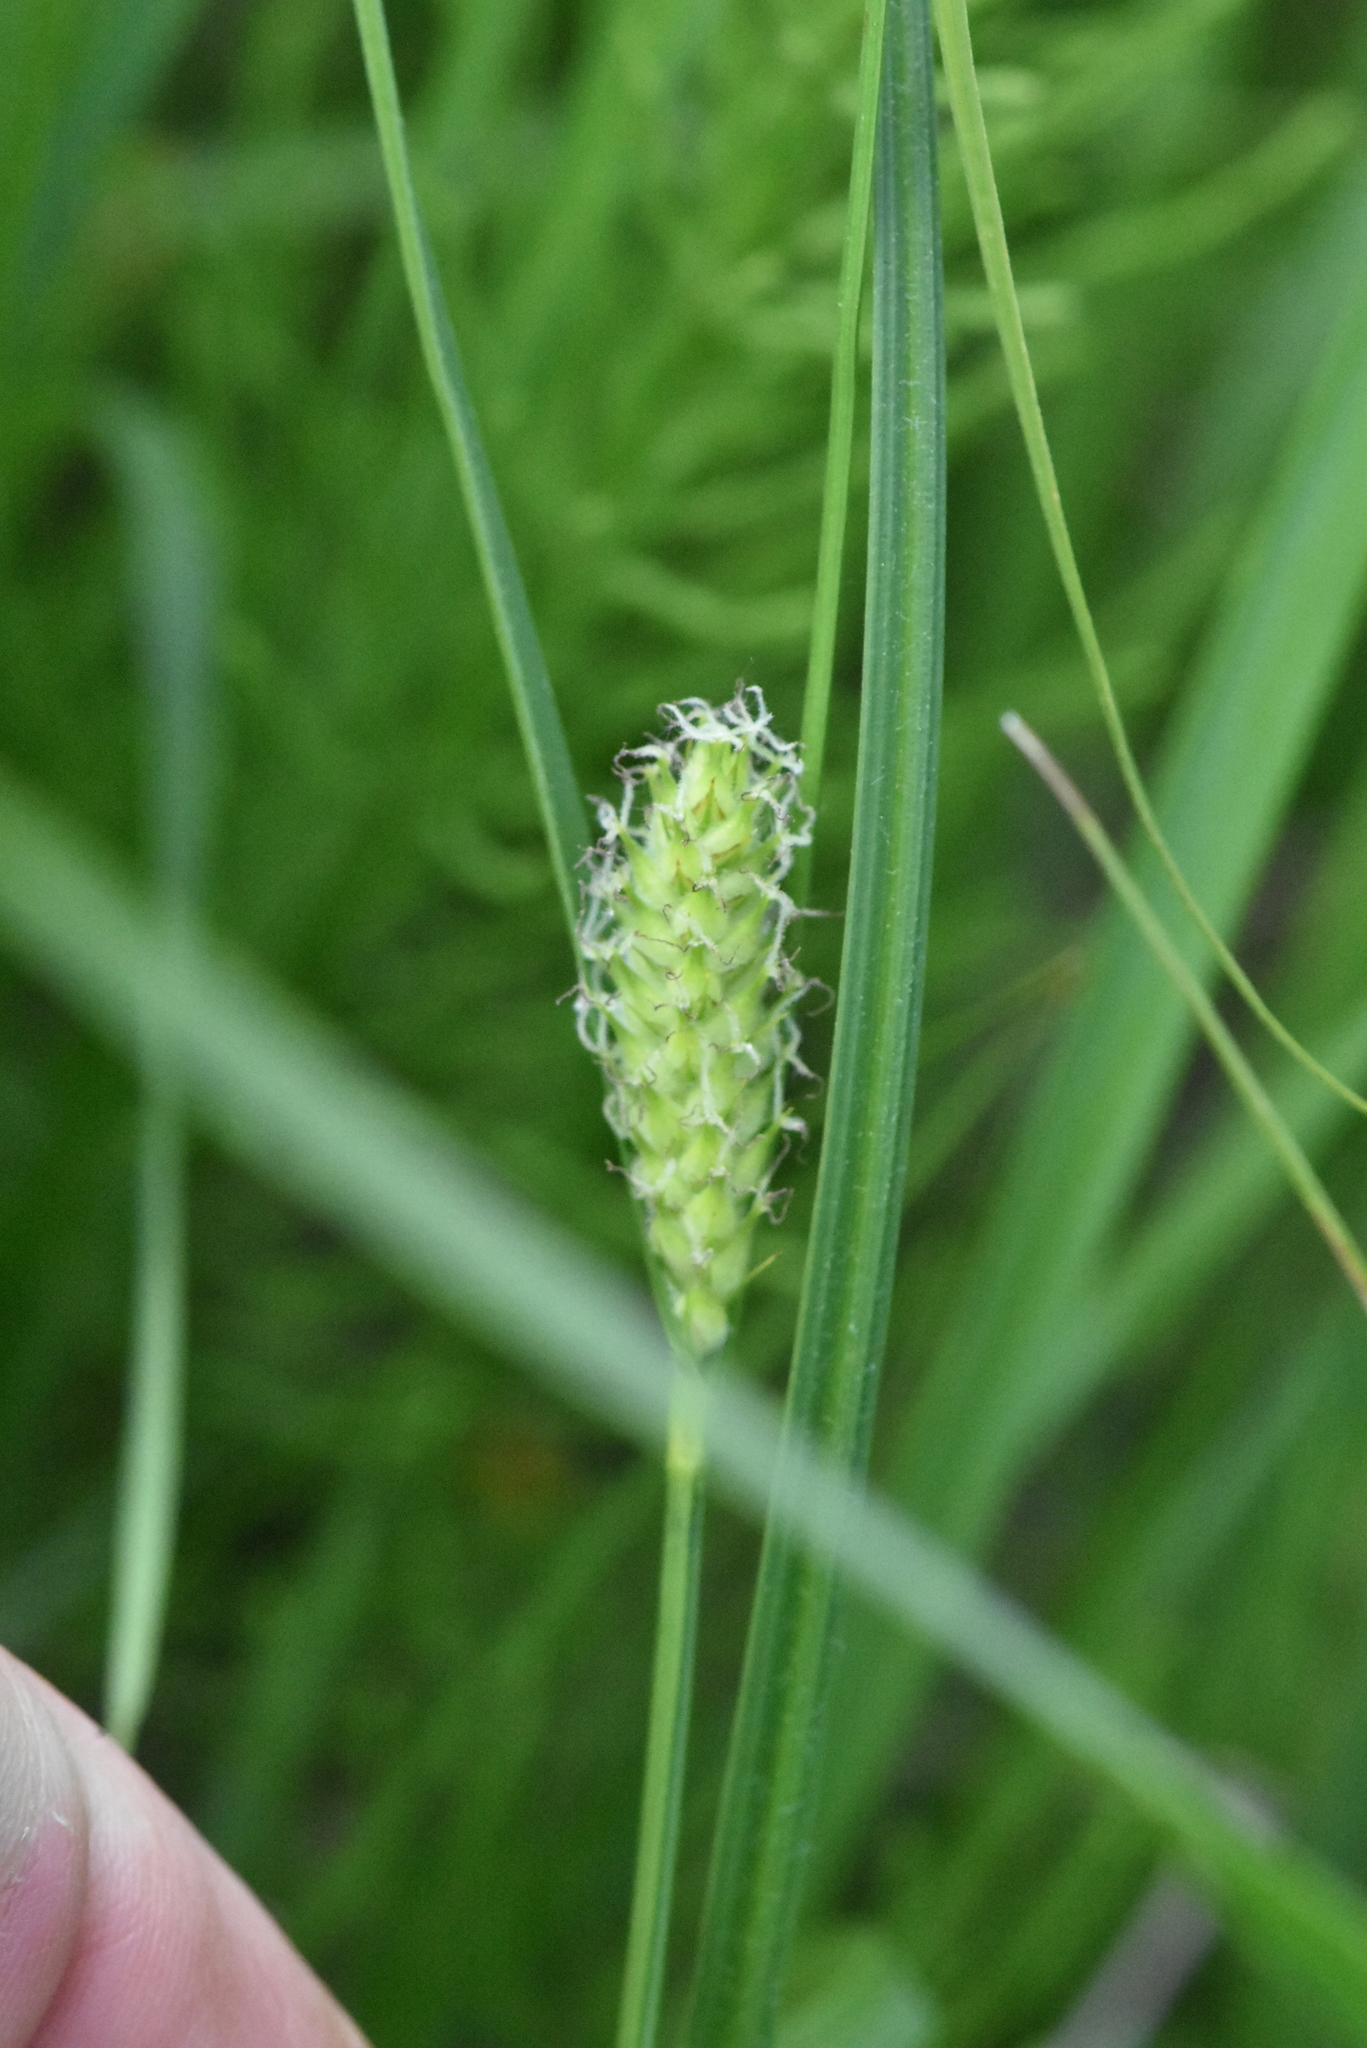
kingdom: Plantae
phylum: Tracheophyta
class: Liliopsida
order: Poales
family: Cyperaceae
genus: Carex
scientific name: Carex hirta
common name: Hairy sedge
